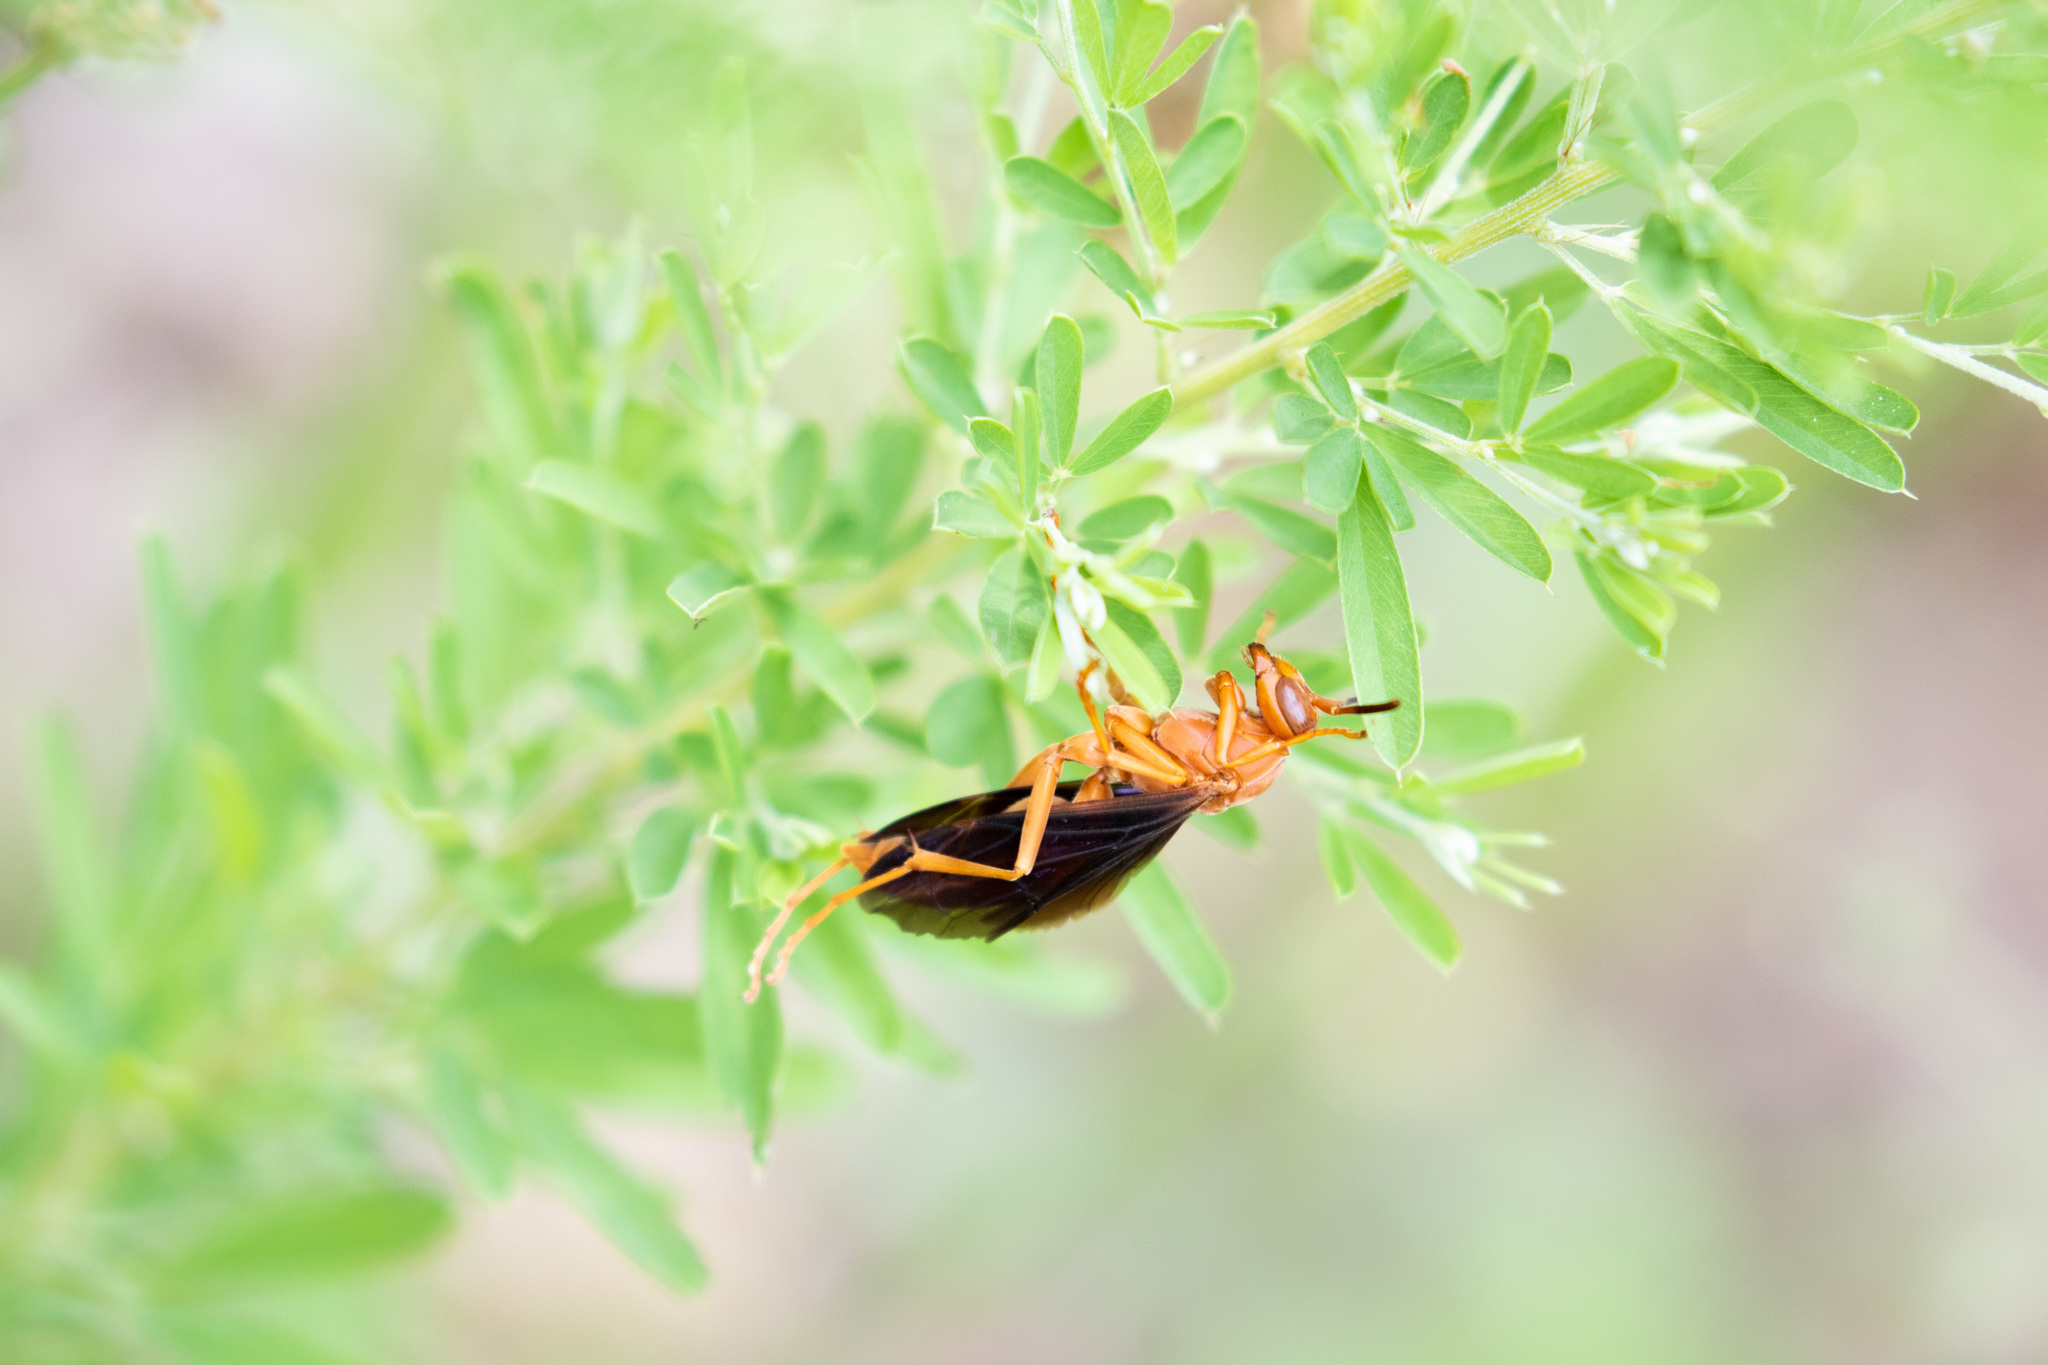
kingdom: Animalia
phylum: Arthropoda
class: Insecta
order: Hymenoptera
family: Eumenidae
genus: Polistes
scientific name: Polistes carolina
